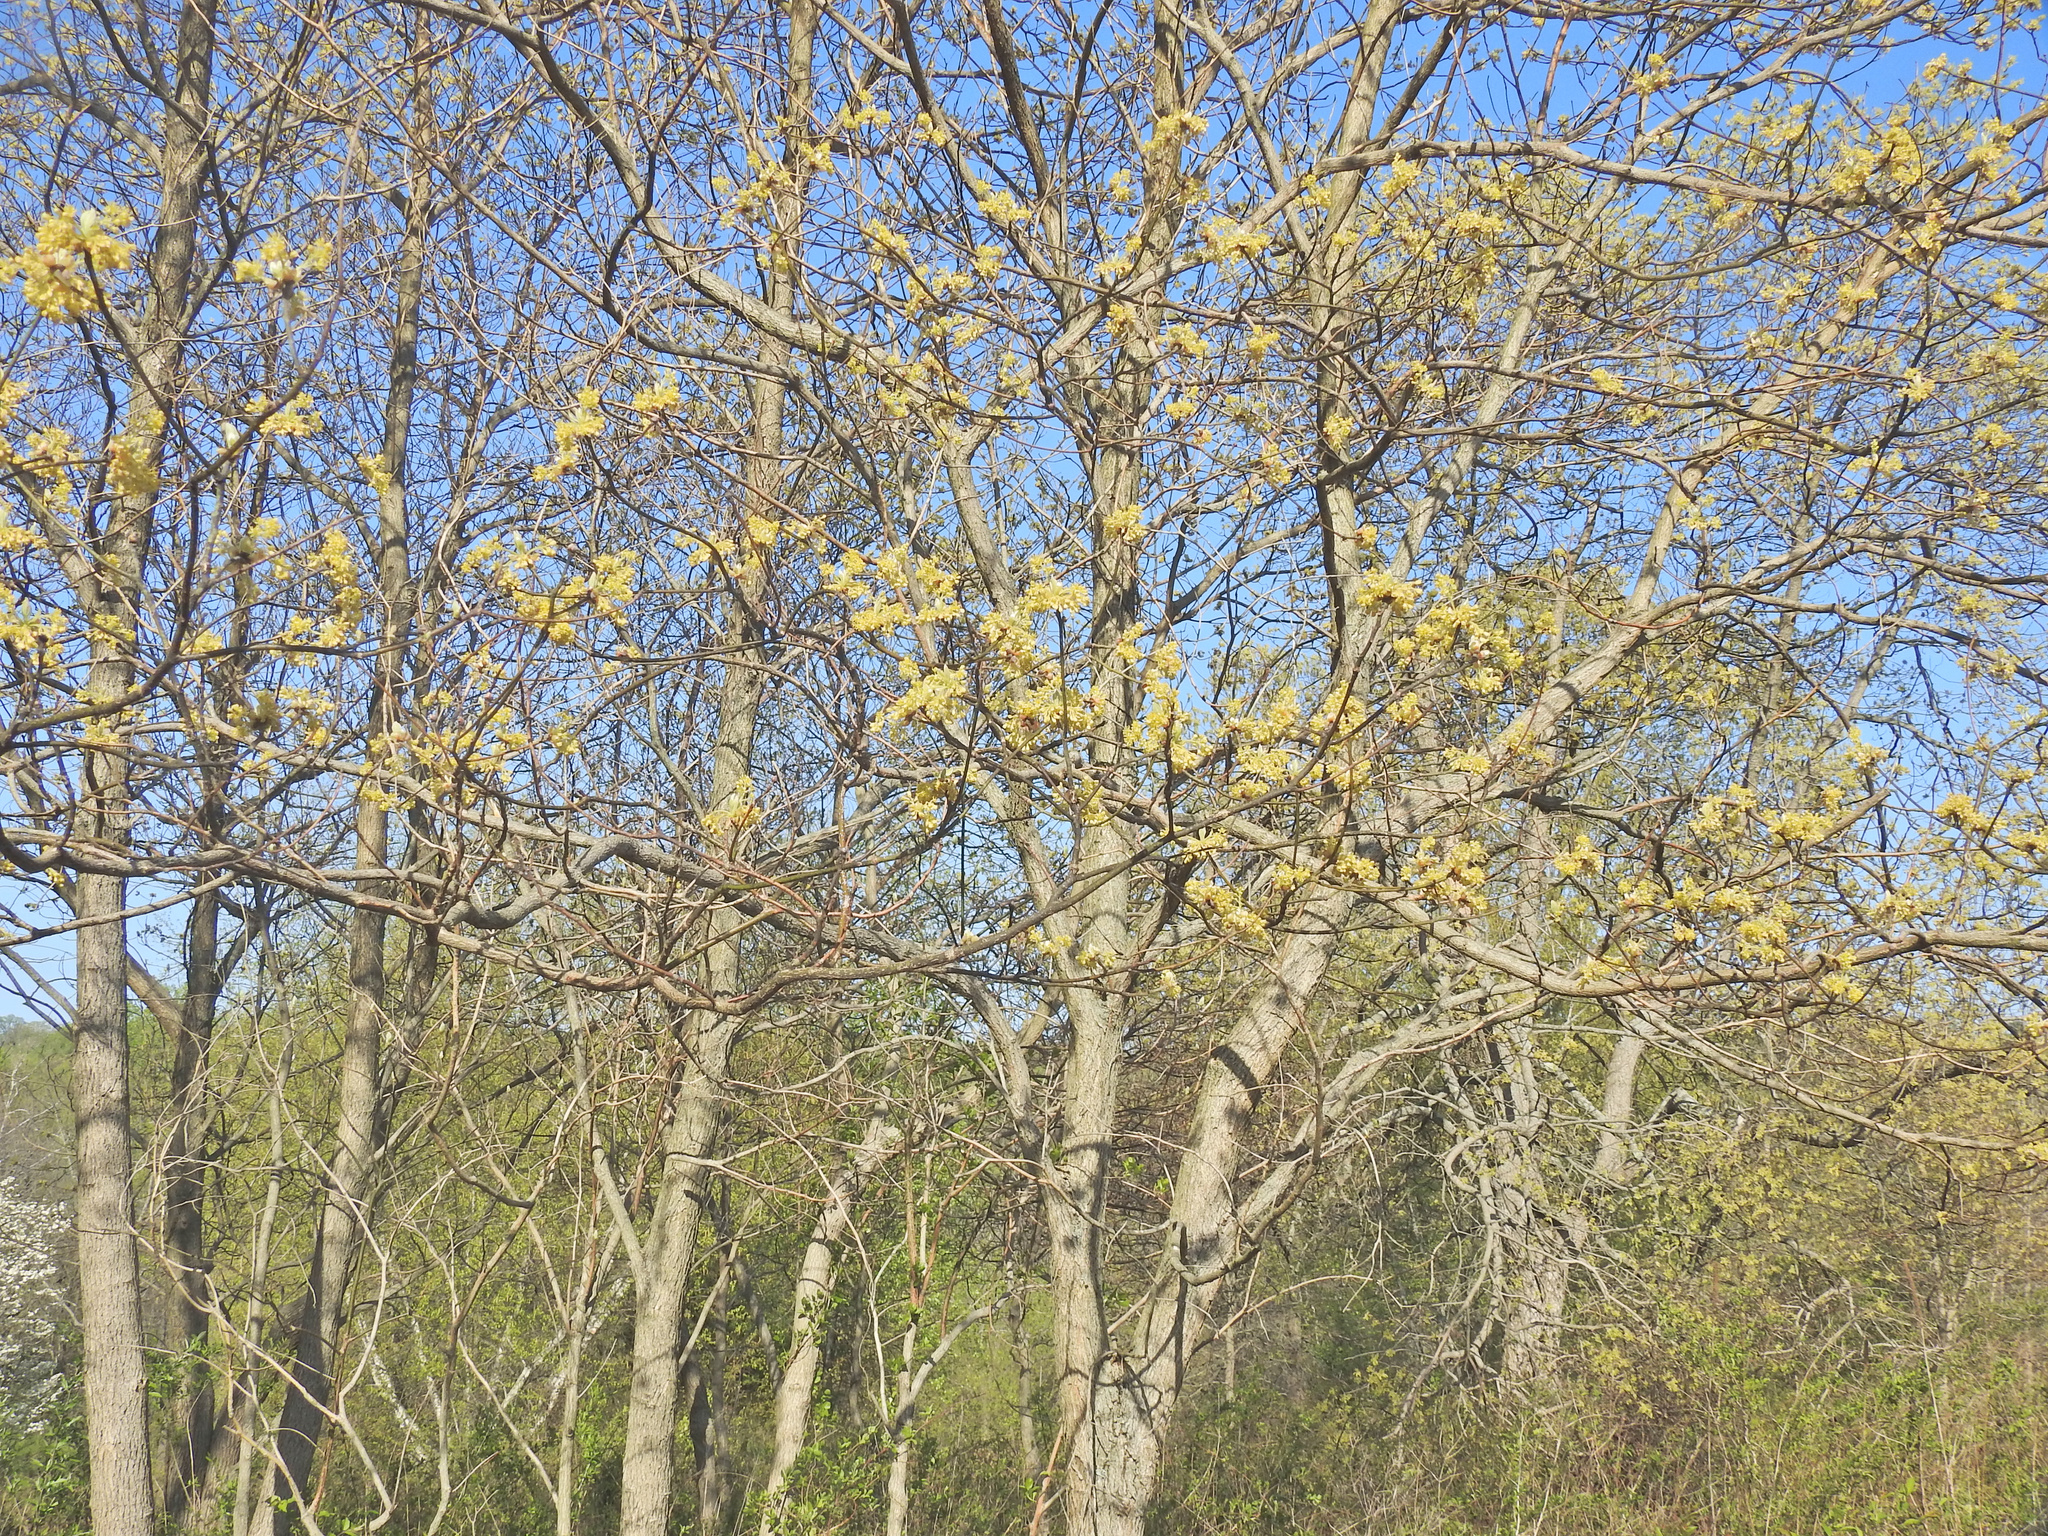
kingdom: Plantae
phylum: Tracheophyta
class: Magnoliopsida
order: Laurales
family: Lauraceae
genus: Sassafras
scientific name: Sassafras albidum
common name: Sassafras
